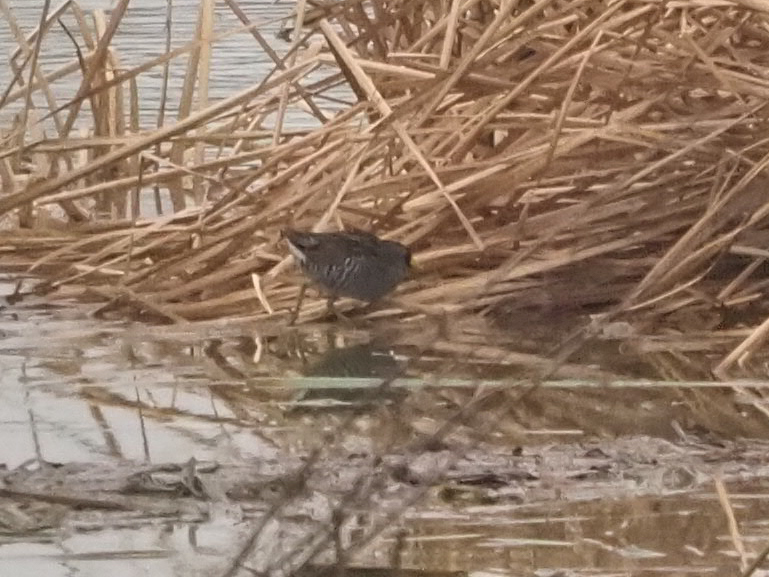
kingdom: Animalia
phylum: Chordata
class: Aves
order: Gruiformes
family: Rallidae
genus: Porzana
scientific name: Porzana carolina
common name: Sora
